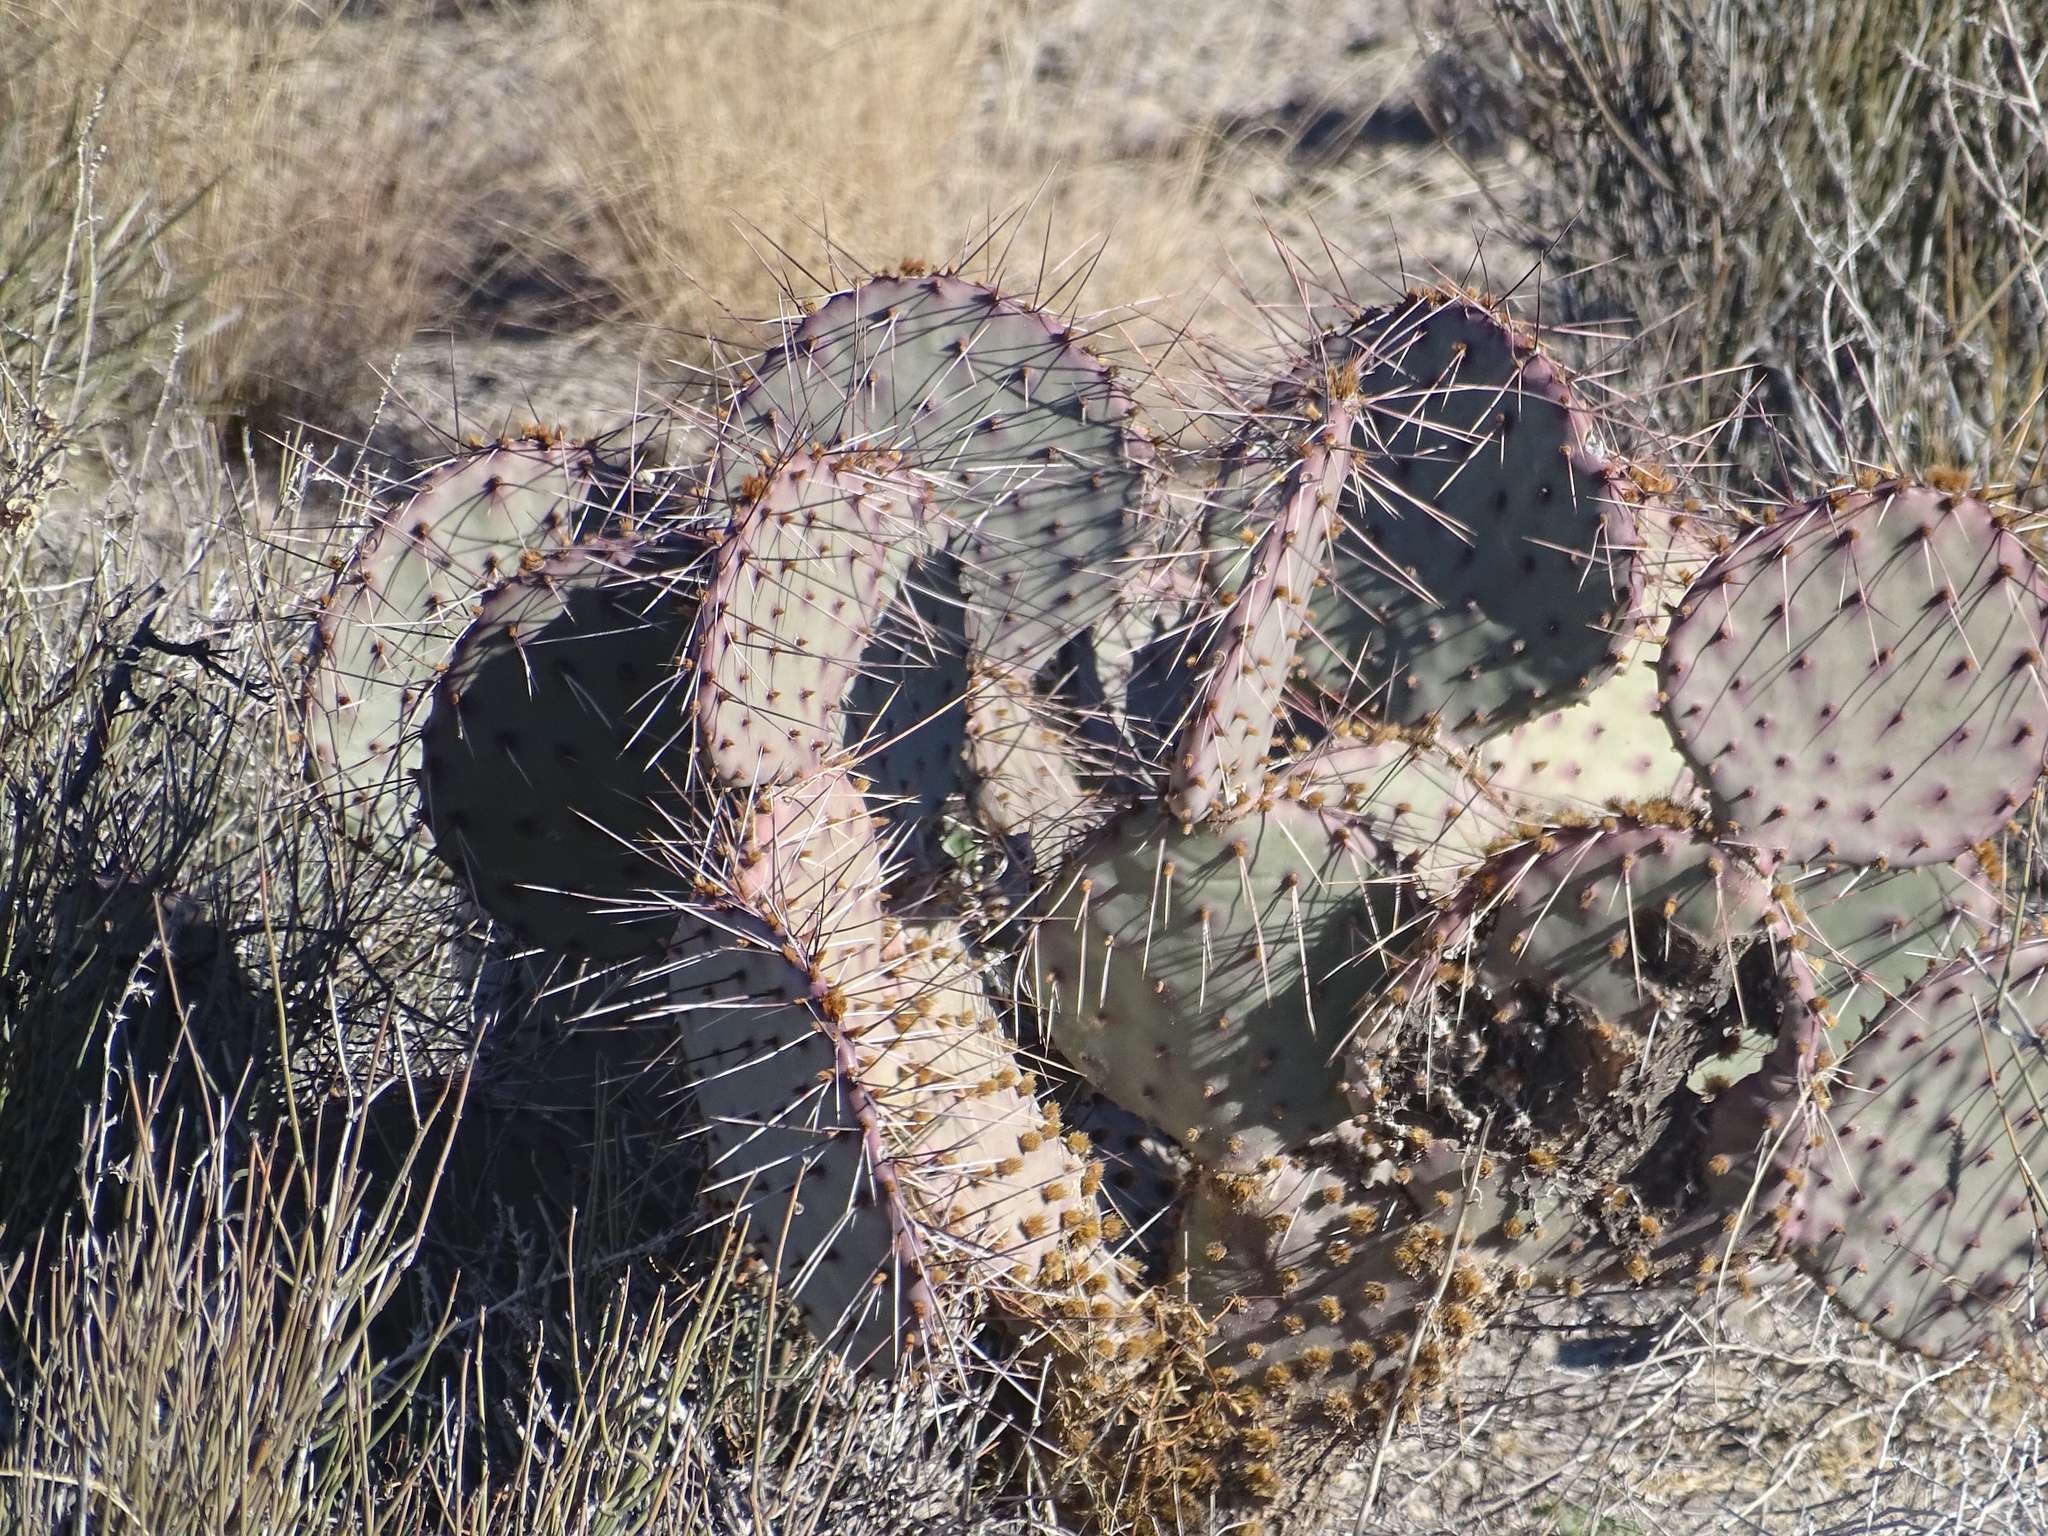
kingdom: Plantae
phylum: Tracheophyta
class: Magnoliopsida
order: Caryophyllales
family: Cactaceae
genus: Opuntia
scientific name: Opuntia macrocentra
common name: Purple prickly-pear
